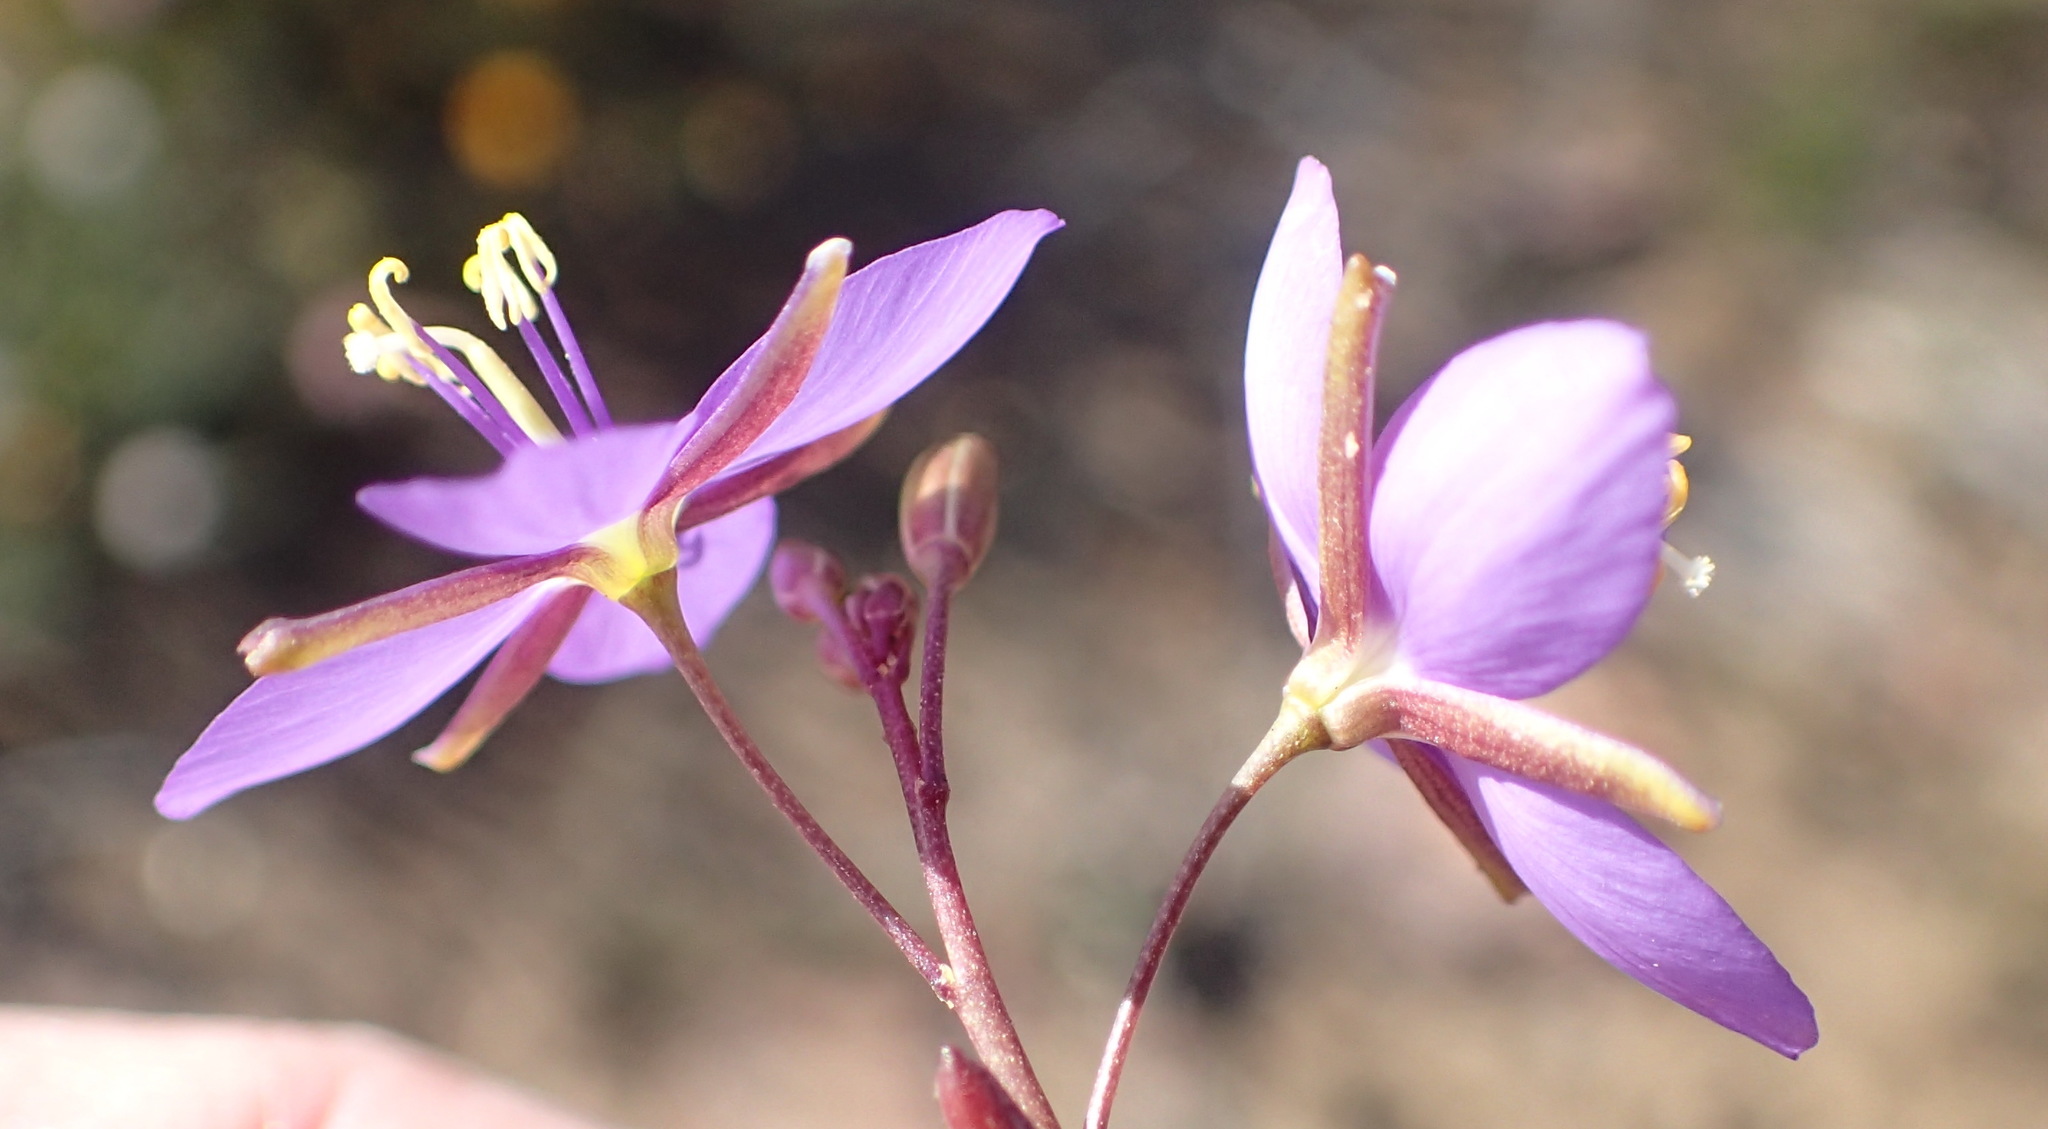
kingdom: Plantae
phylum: Tracheophyta
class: Magnoliopsida
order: Brassicales
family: Brassicaceae
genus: Heliophila
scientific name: Heliophila subulata
